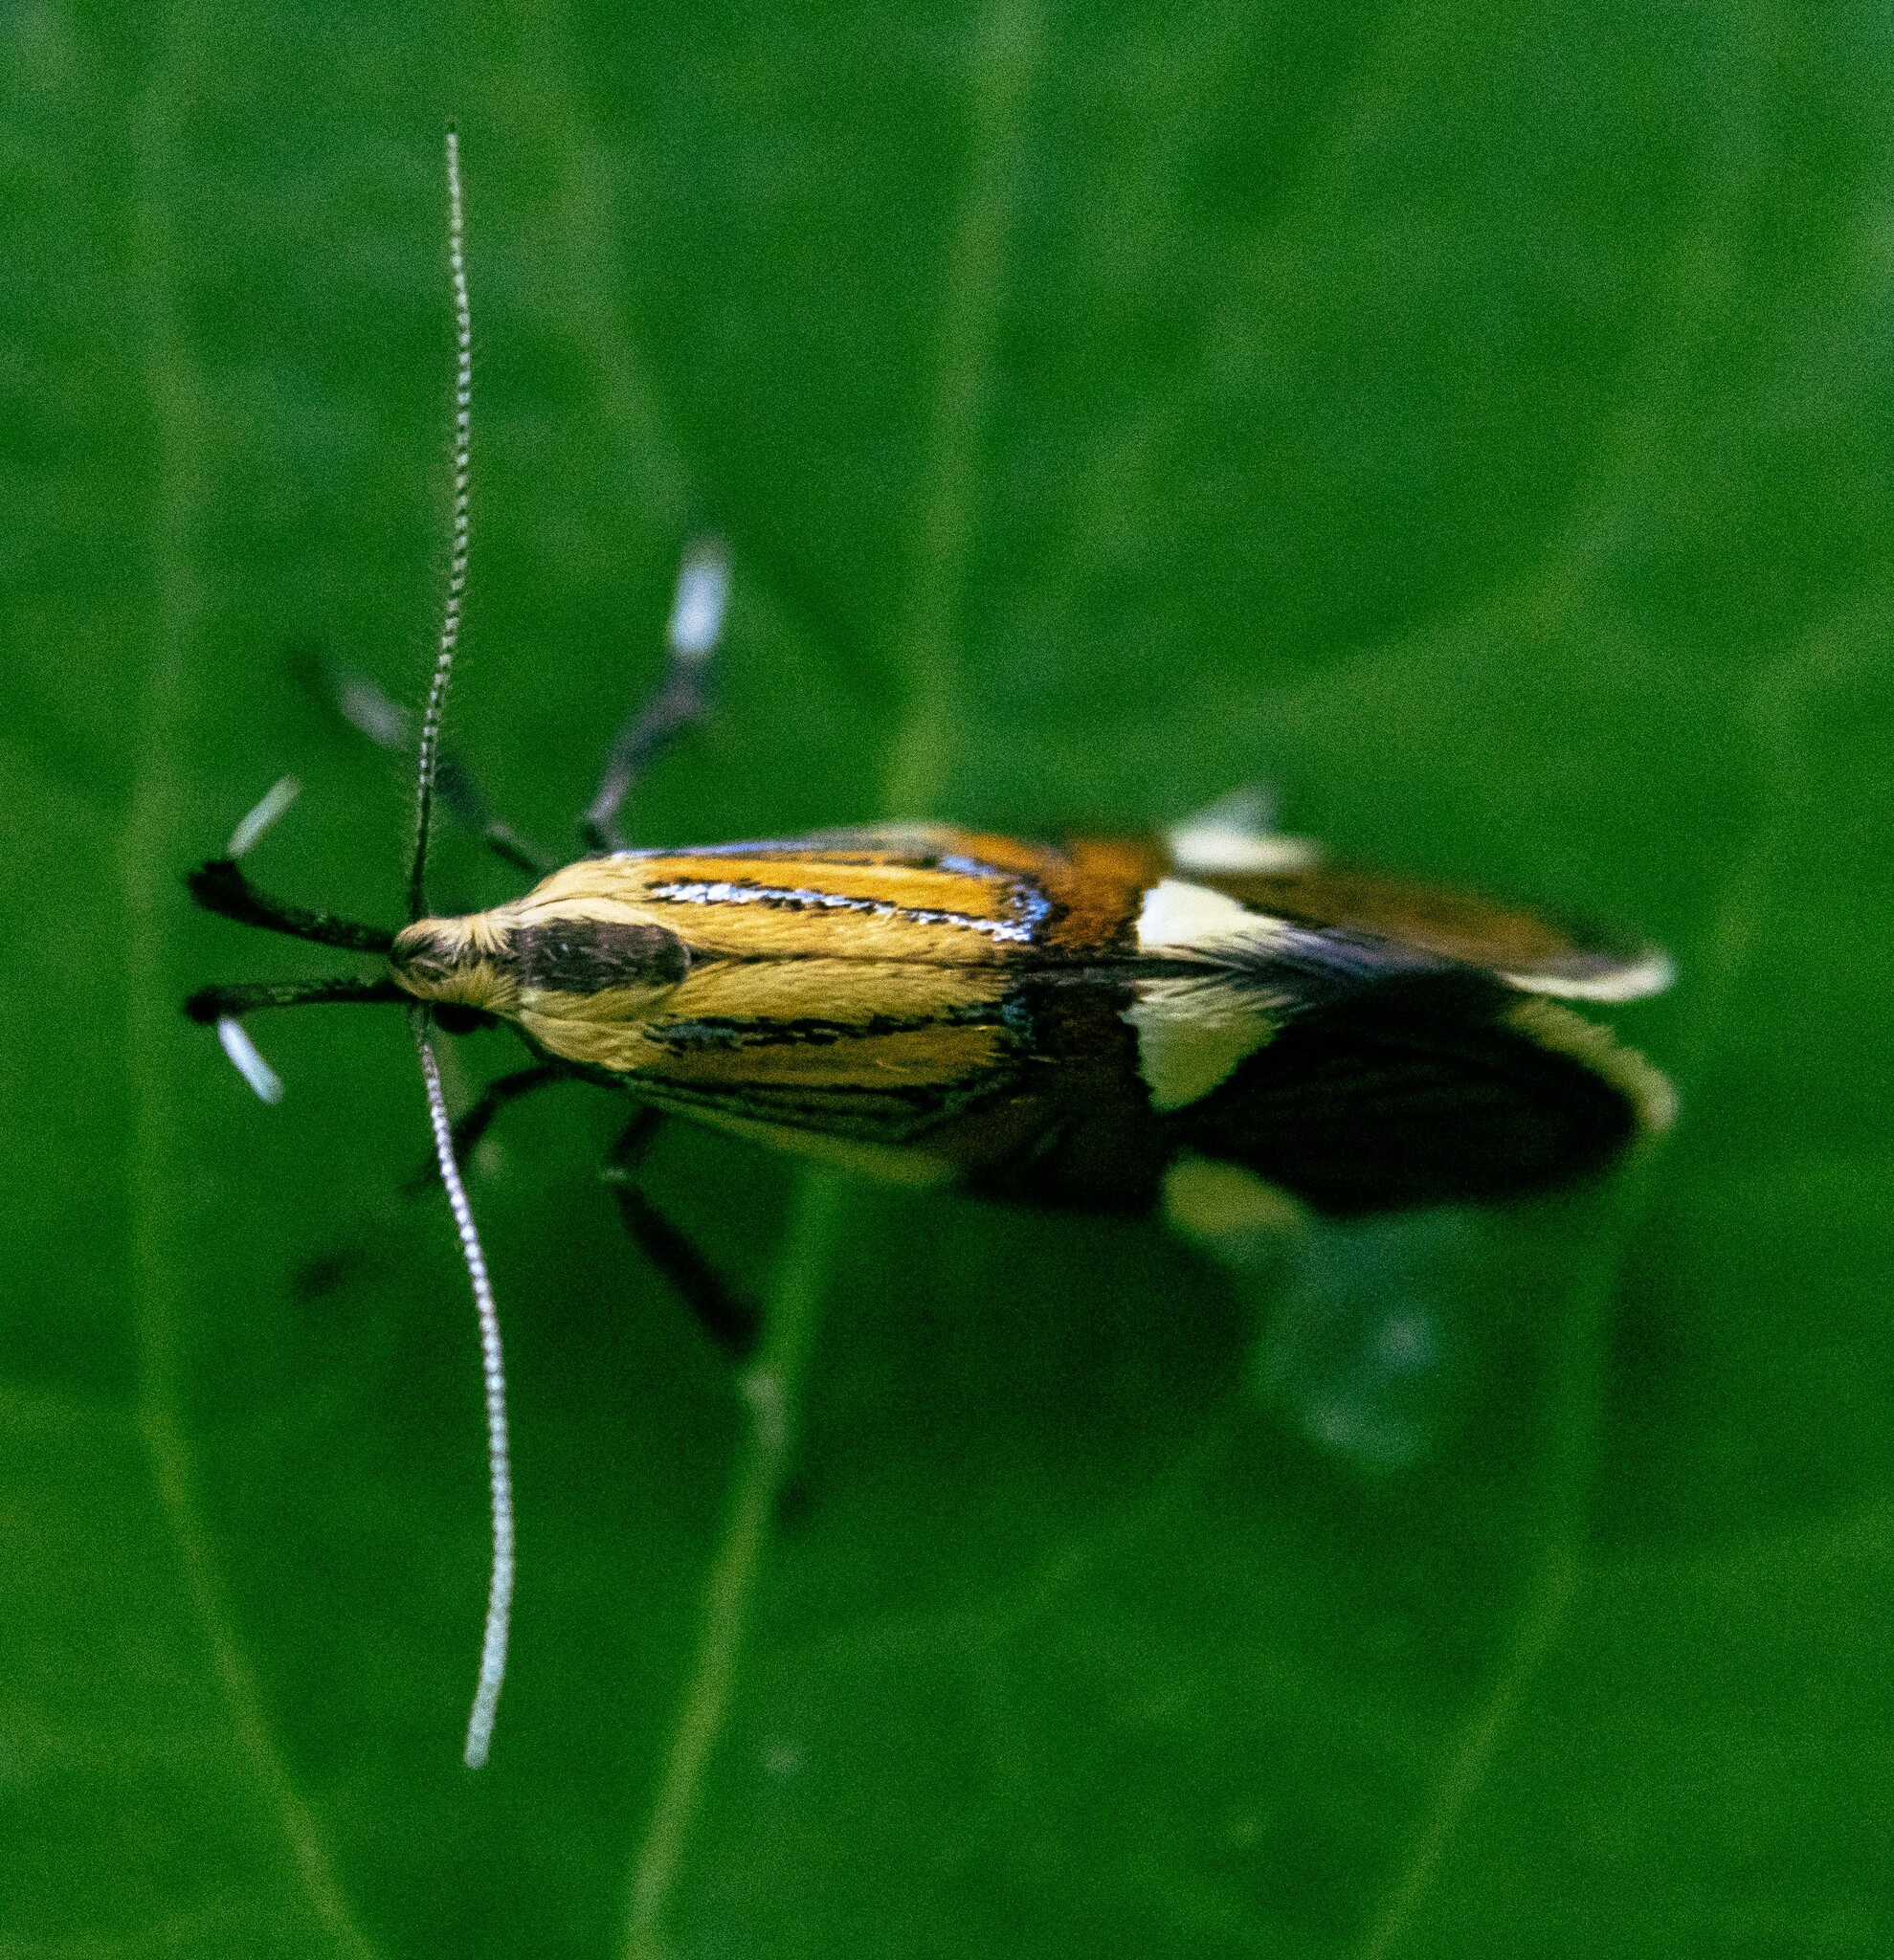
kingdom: Animalia
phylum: Arthropoda
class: Insecta
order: Lepidoptera
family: Oecophoridae
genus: Oecophora
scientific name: Oecophora Alabonia geoffrella
